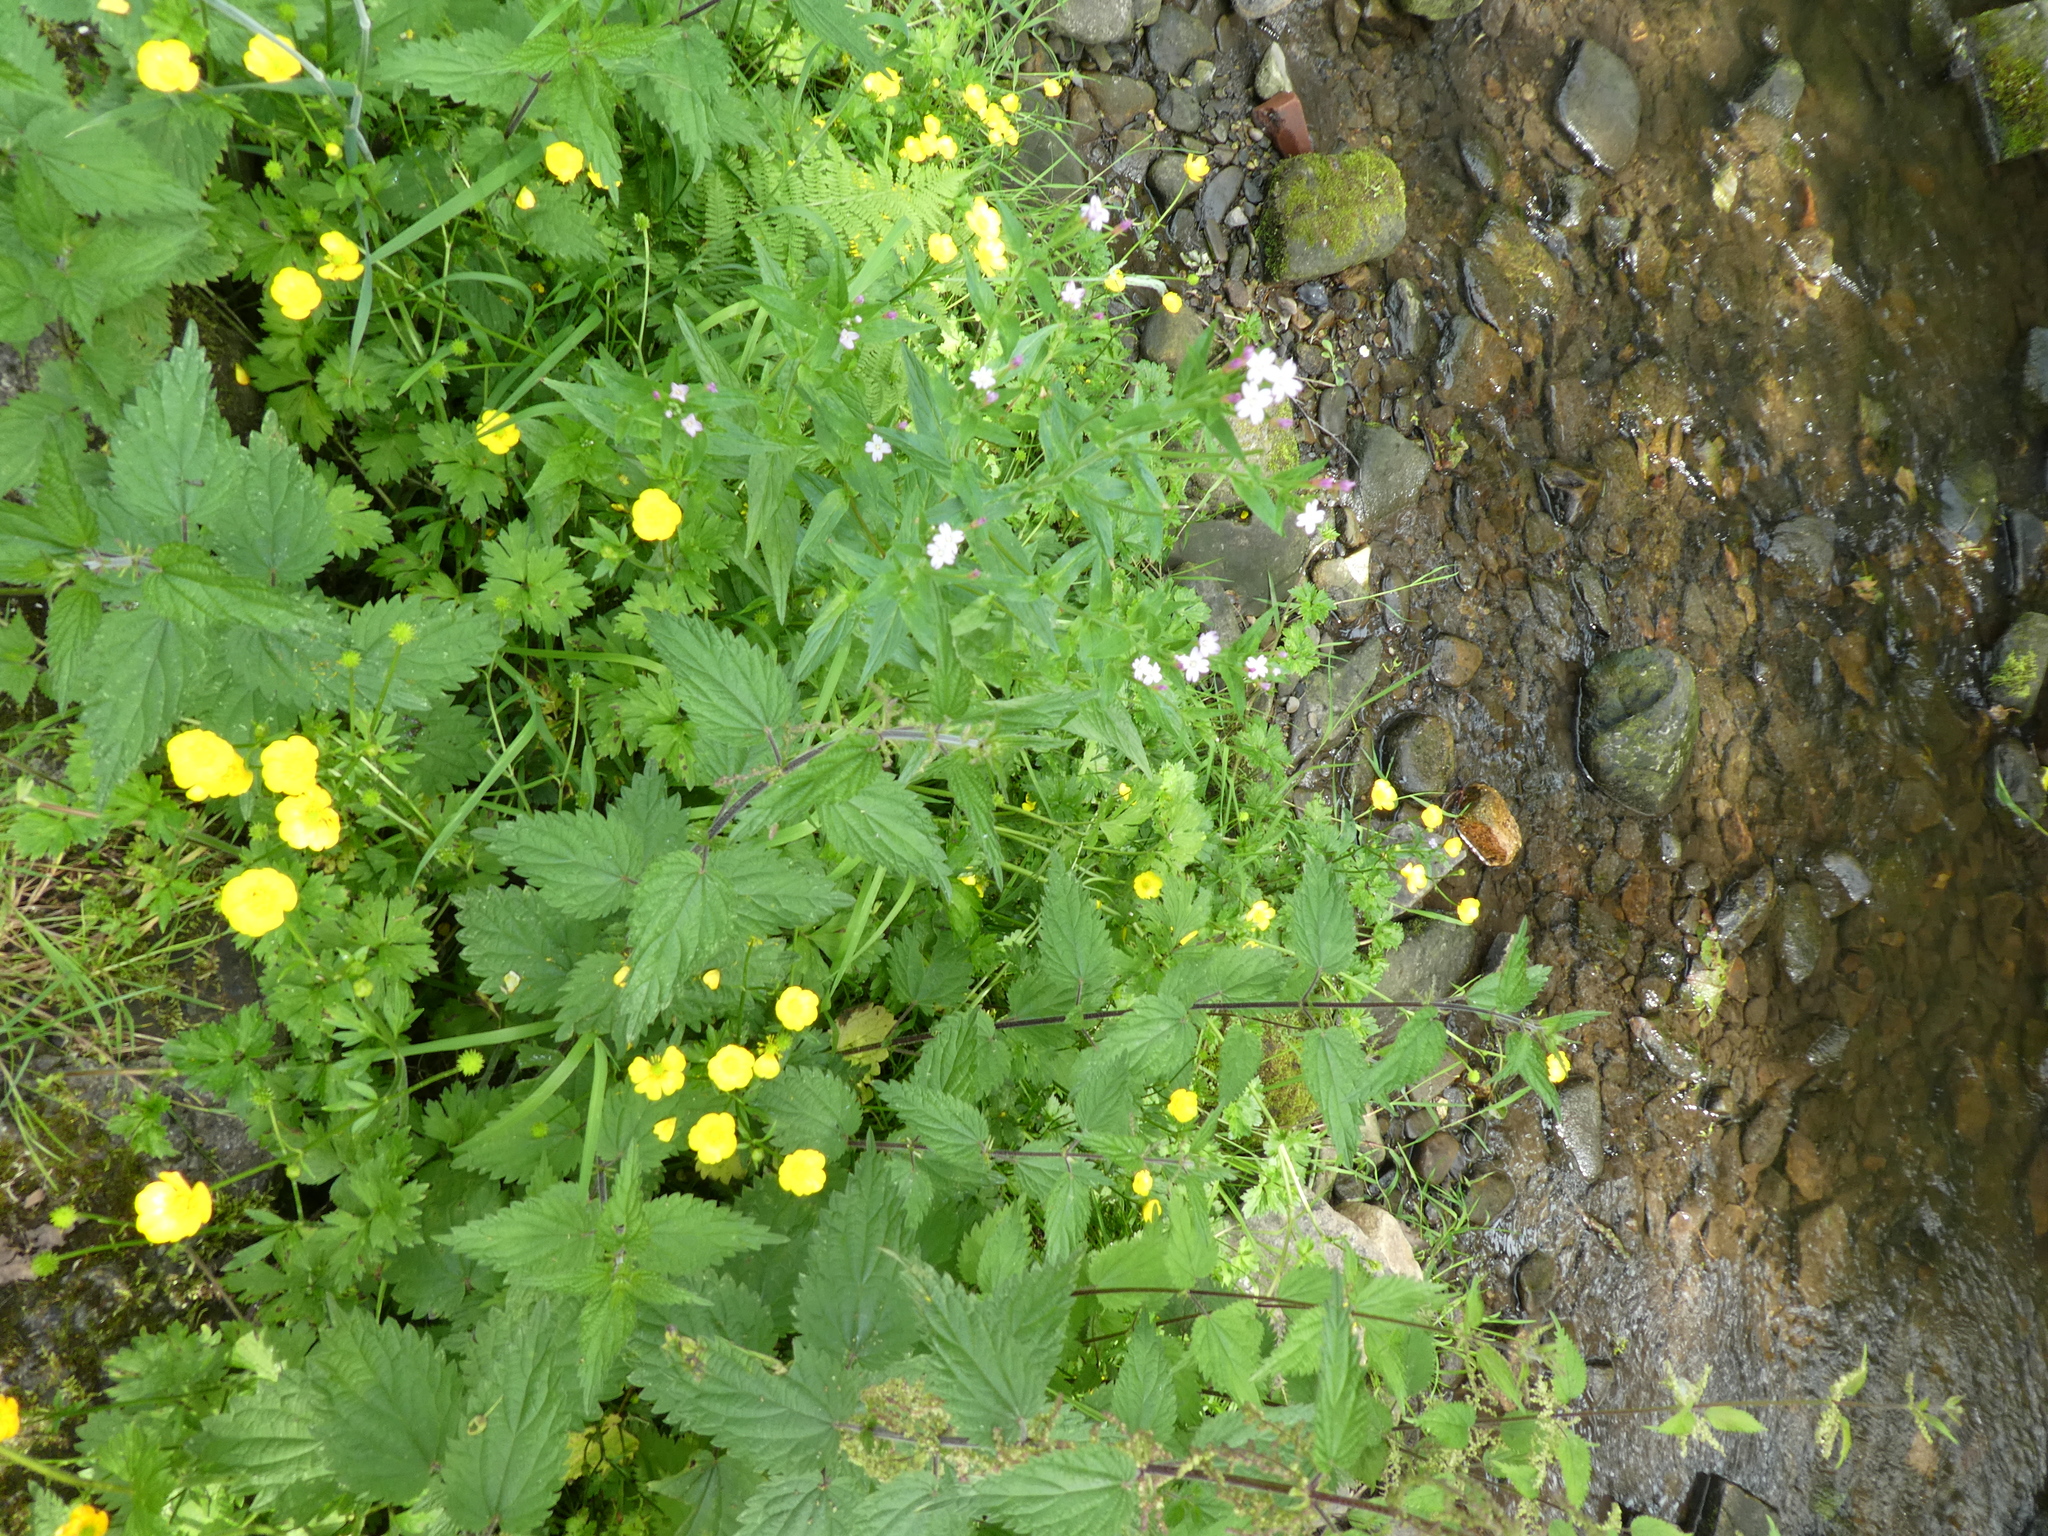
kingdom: Plantae
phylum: Tracheophyta
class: Magnoliopsida
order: Rosales
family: Urticaceae
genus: Urtica
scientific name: Urtica dioica
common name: Common nettle
